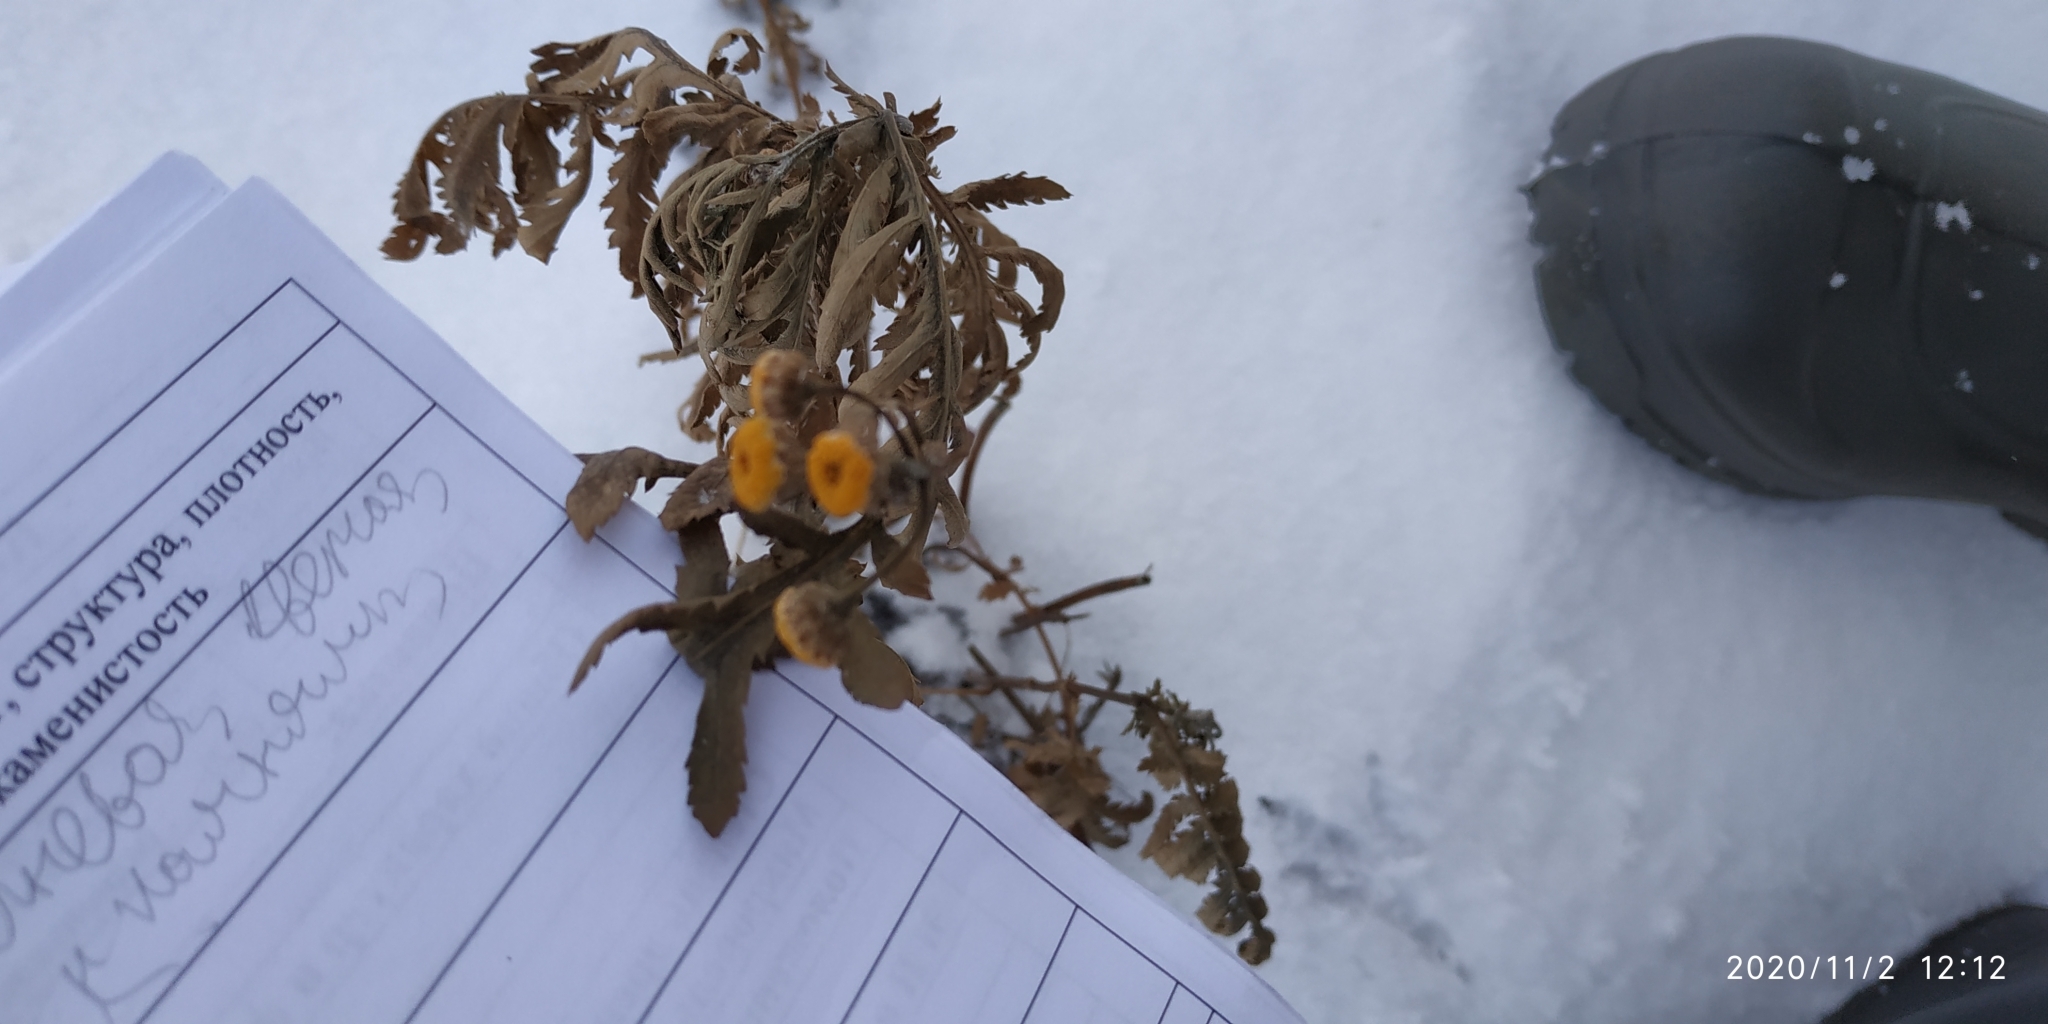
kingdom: Plantae
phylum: Tracheophyta
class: Magnoliopsida
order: Asterales
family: Asteraceae
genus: Tanacetum
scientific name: Tanacetum vulgare
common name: Common tansy
